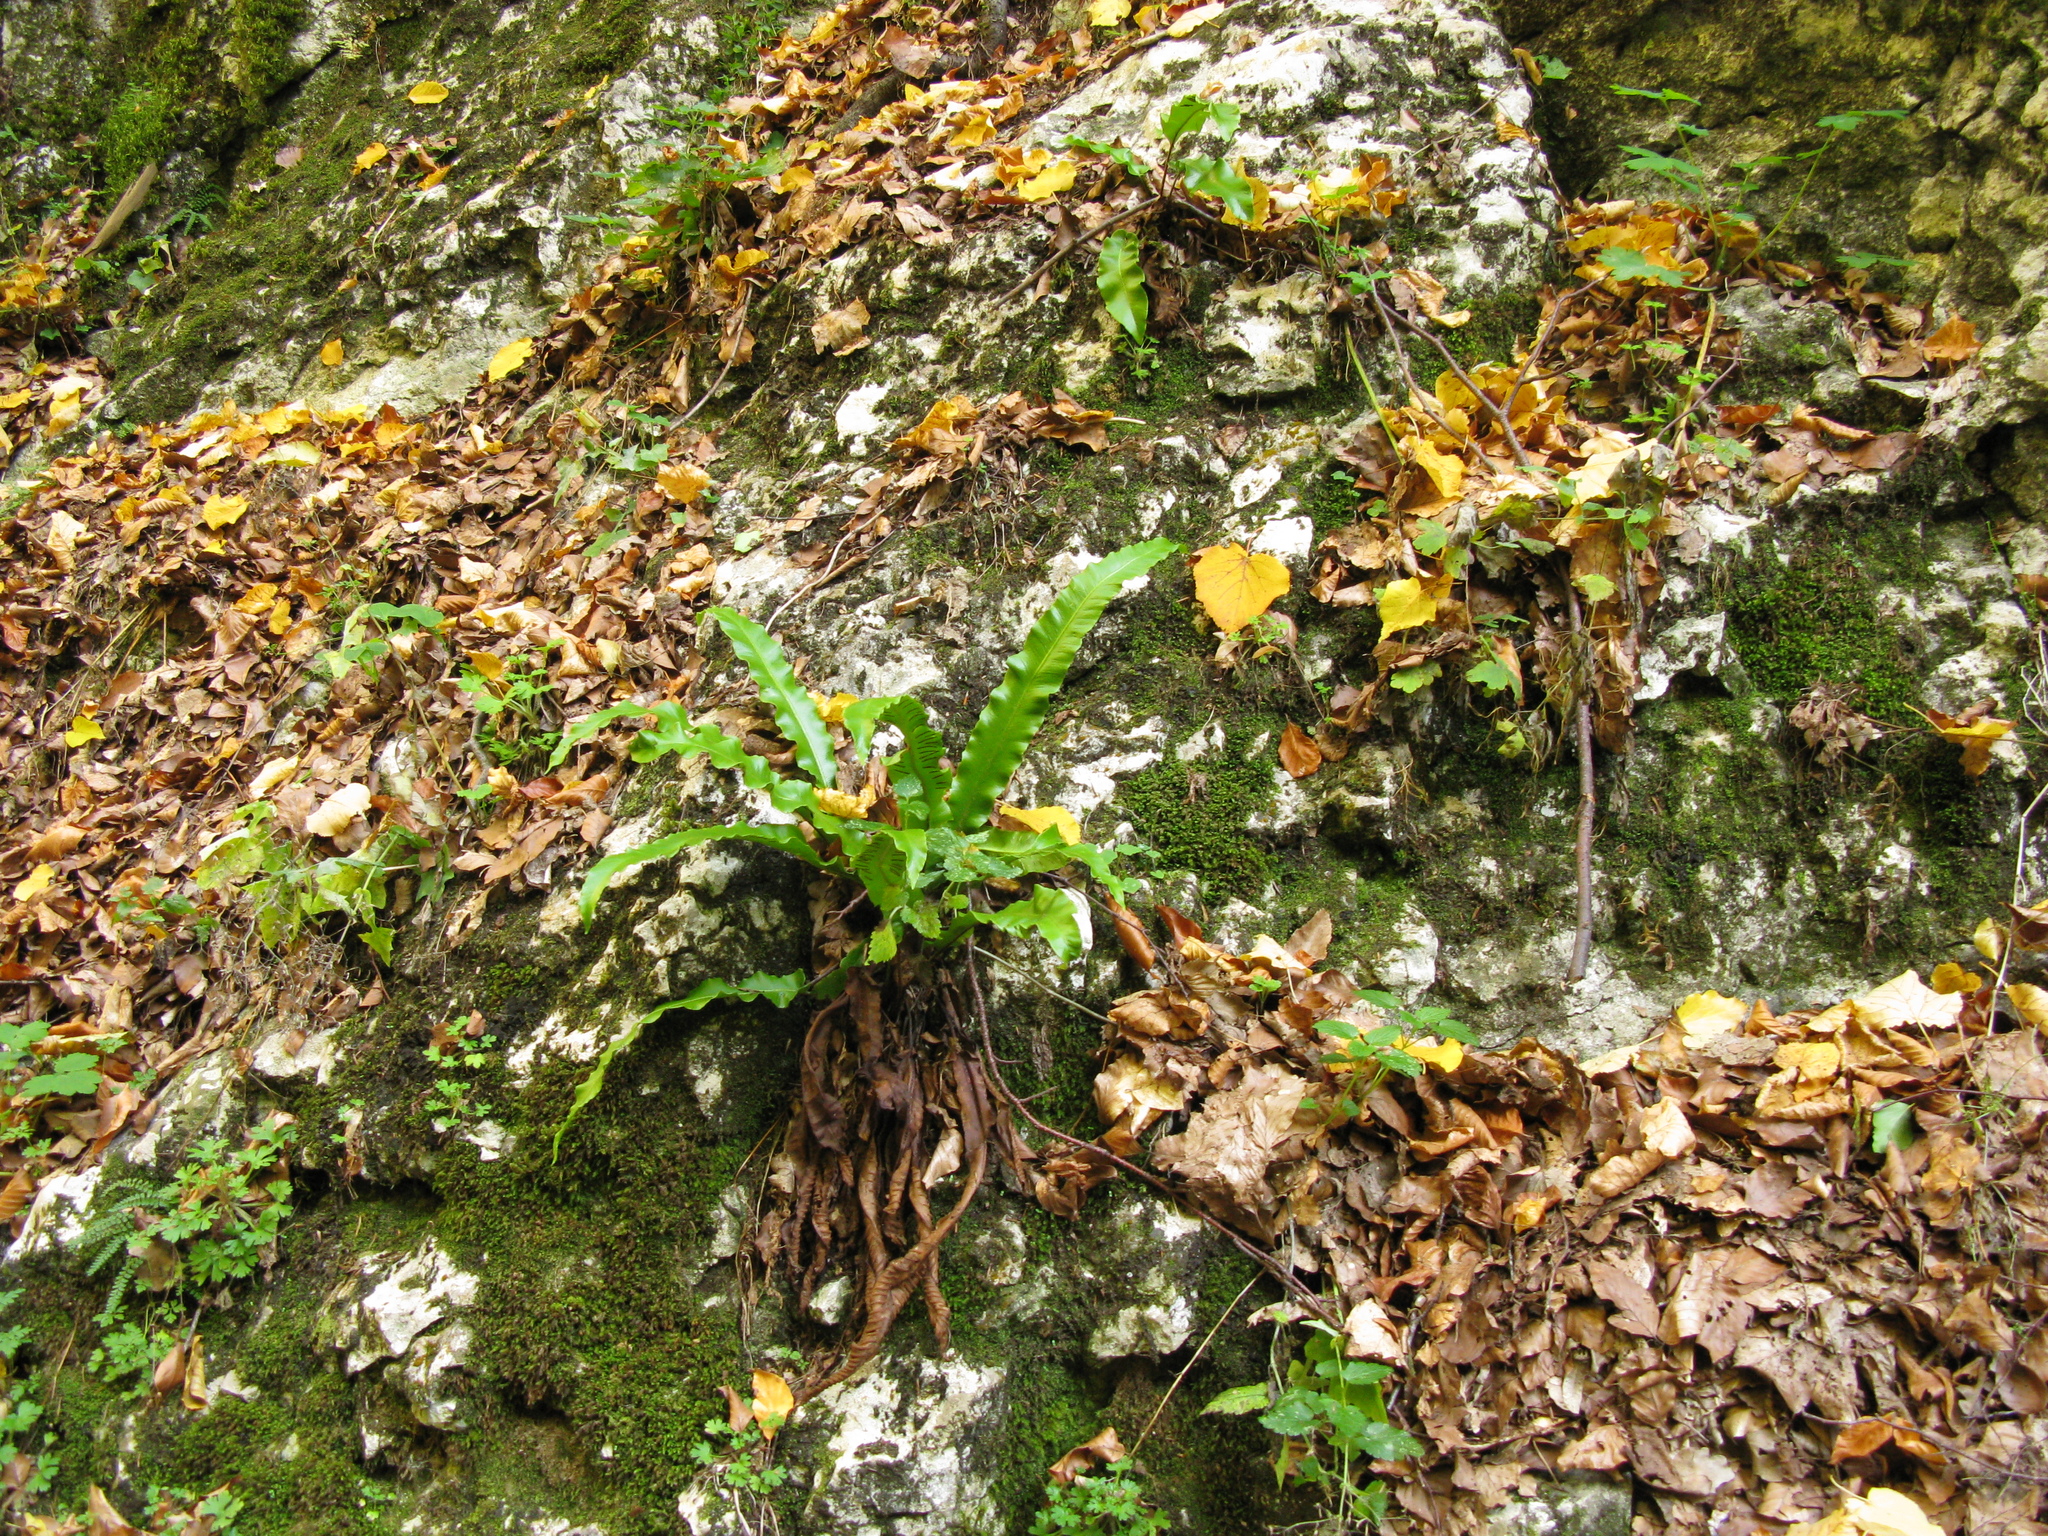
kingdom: Plantae
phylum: Tracheophyta
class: Polypodiopsida
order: Polypodiales
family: Aspleniaceae
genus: Asplenium
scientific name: Asplenium scolopendrium
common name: Hart's-tongue fern
